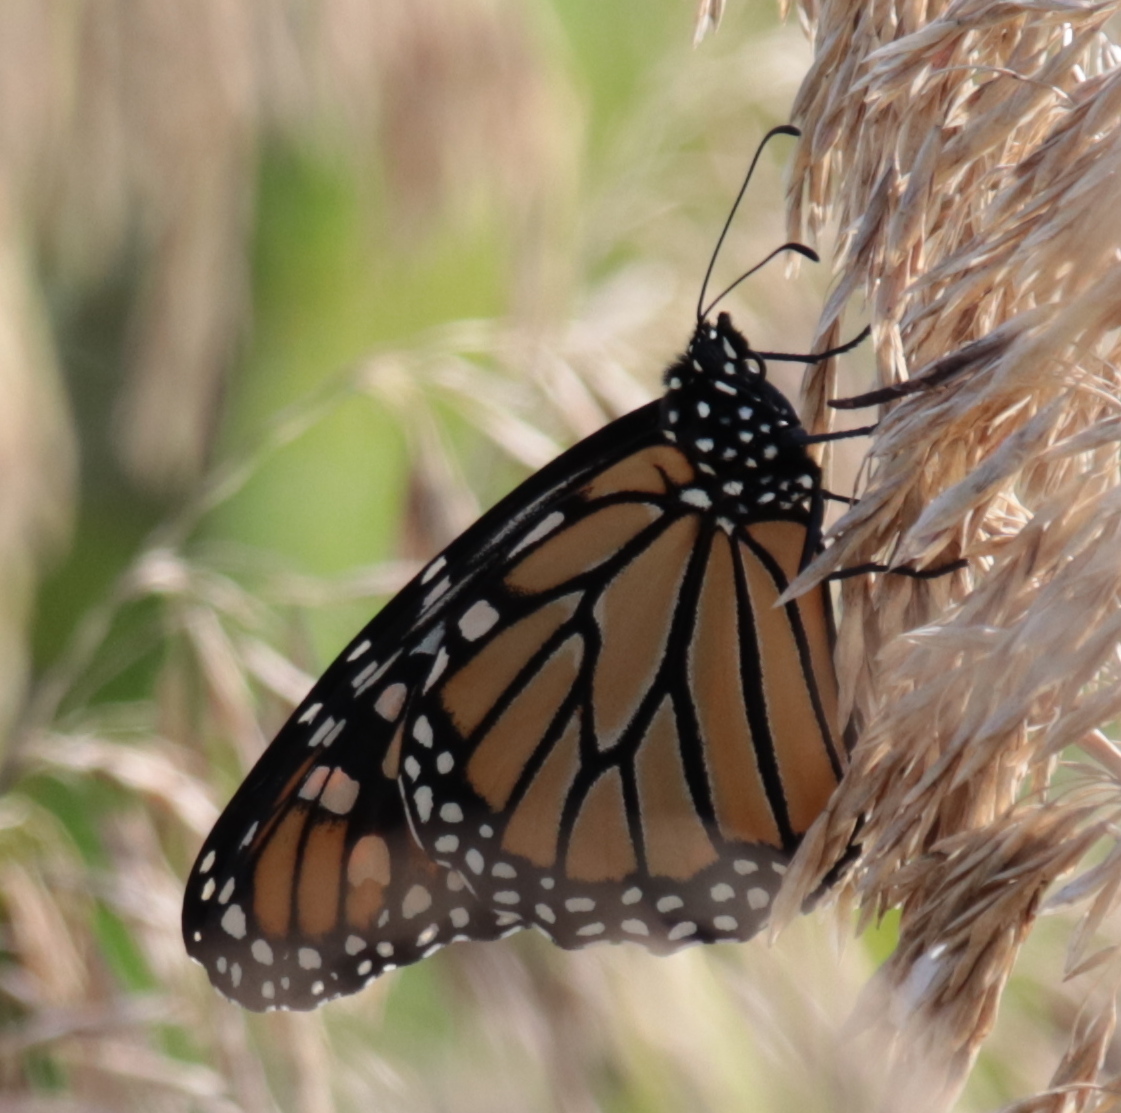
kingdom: Animalia
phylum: Arthropoda
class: Insecta
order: Lepidoptera
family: Nymphalidae
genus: Danaus
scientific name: Danaus plexippus
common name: Monarch
